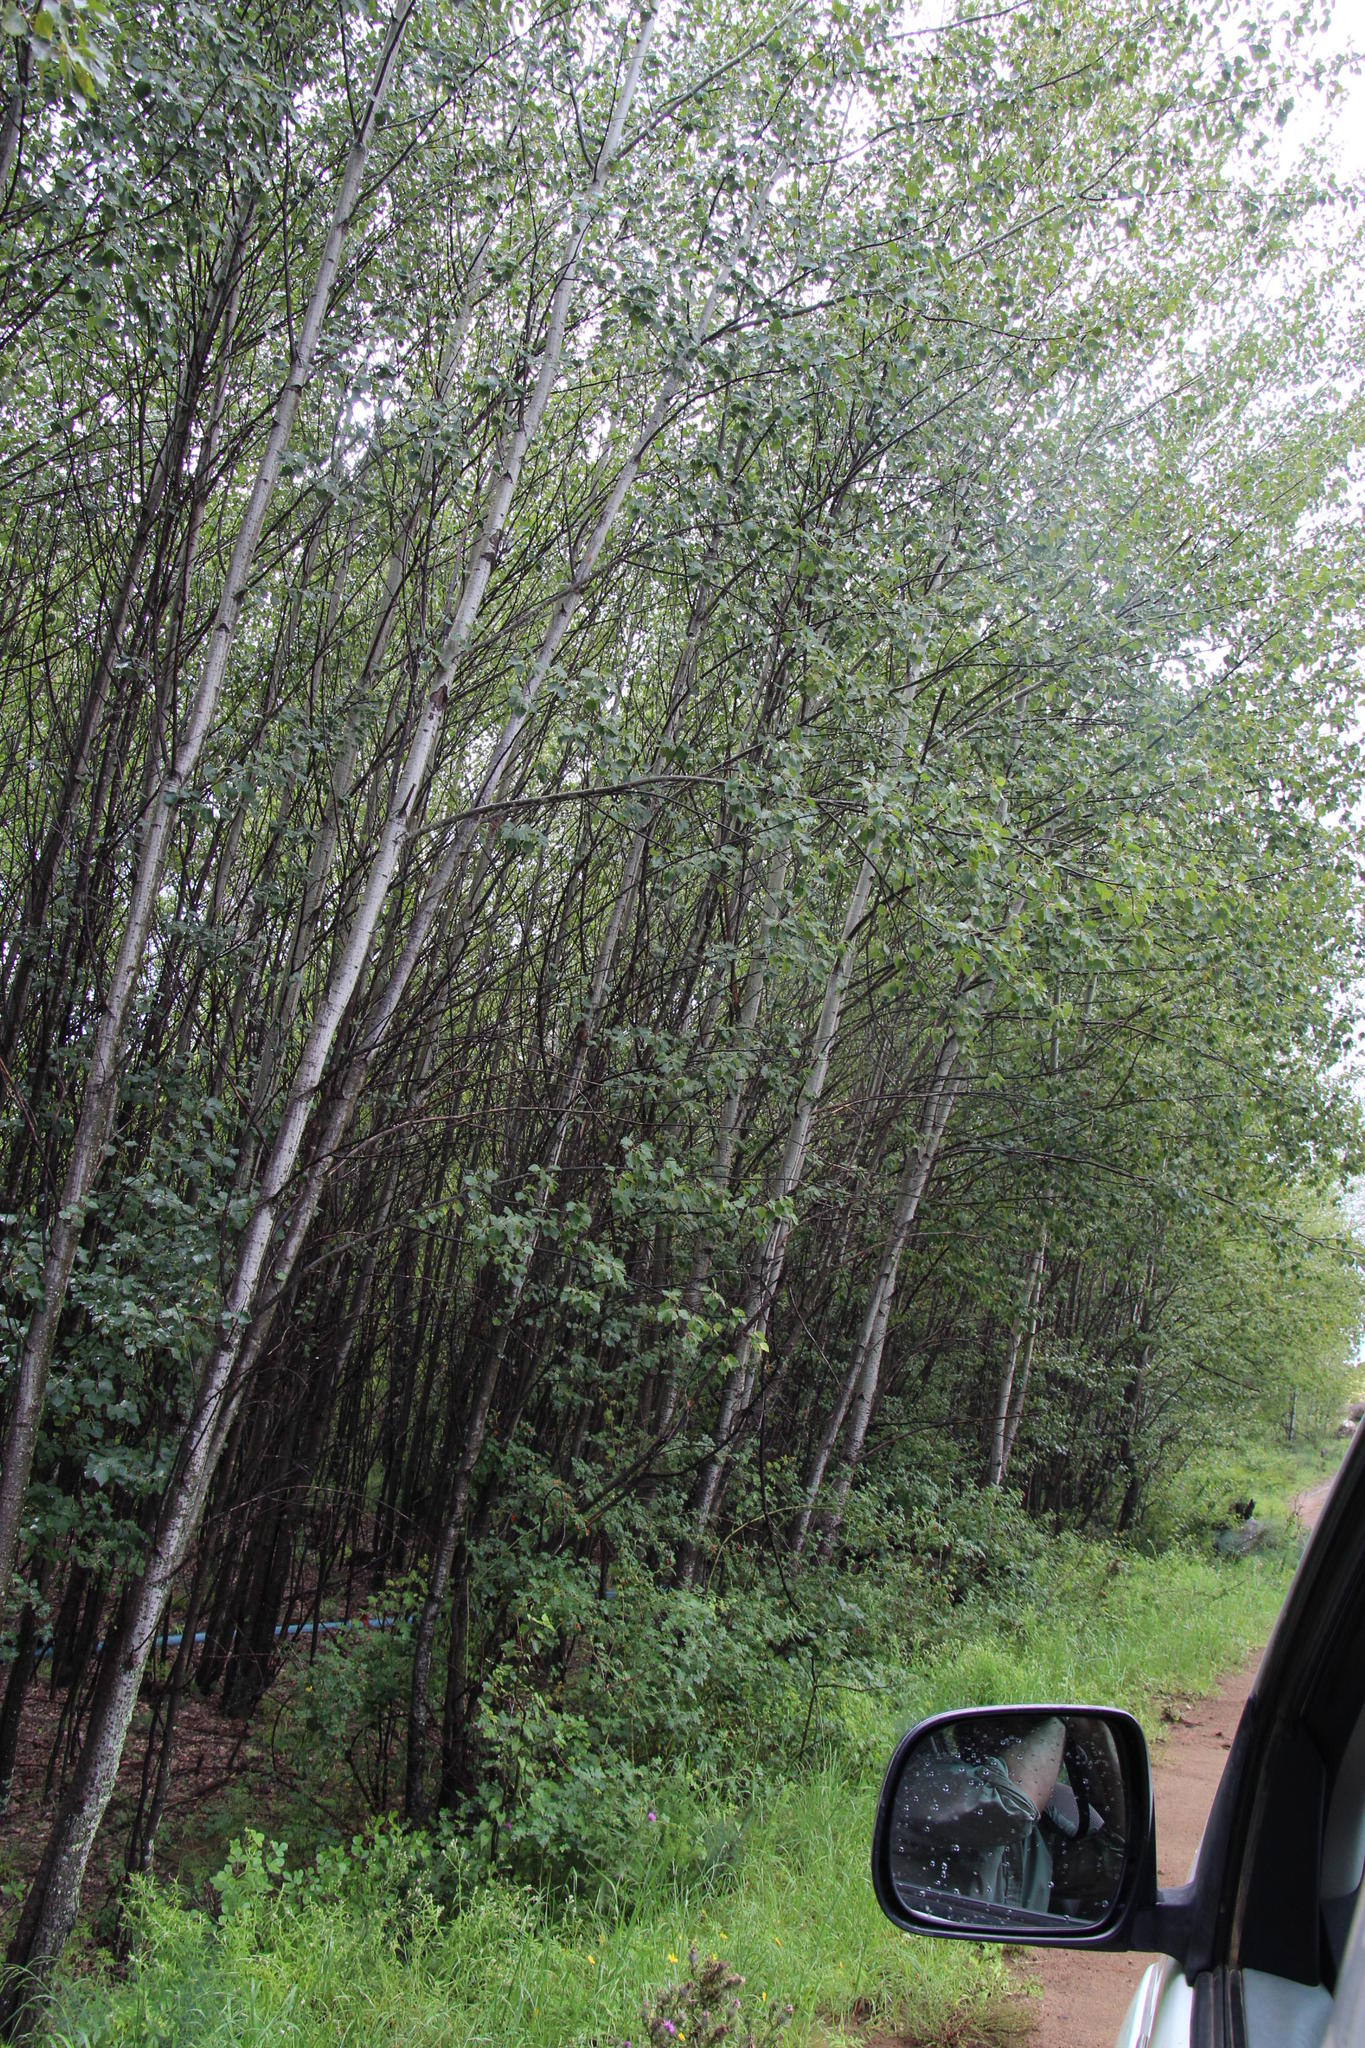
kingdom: Plantae
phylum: Tracheophyta
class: Magnoliopsida
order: Malpighiales
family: Salicaceae
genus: Populus
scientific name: Populus canescens
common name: Gray poplar
